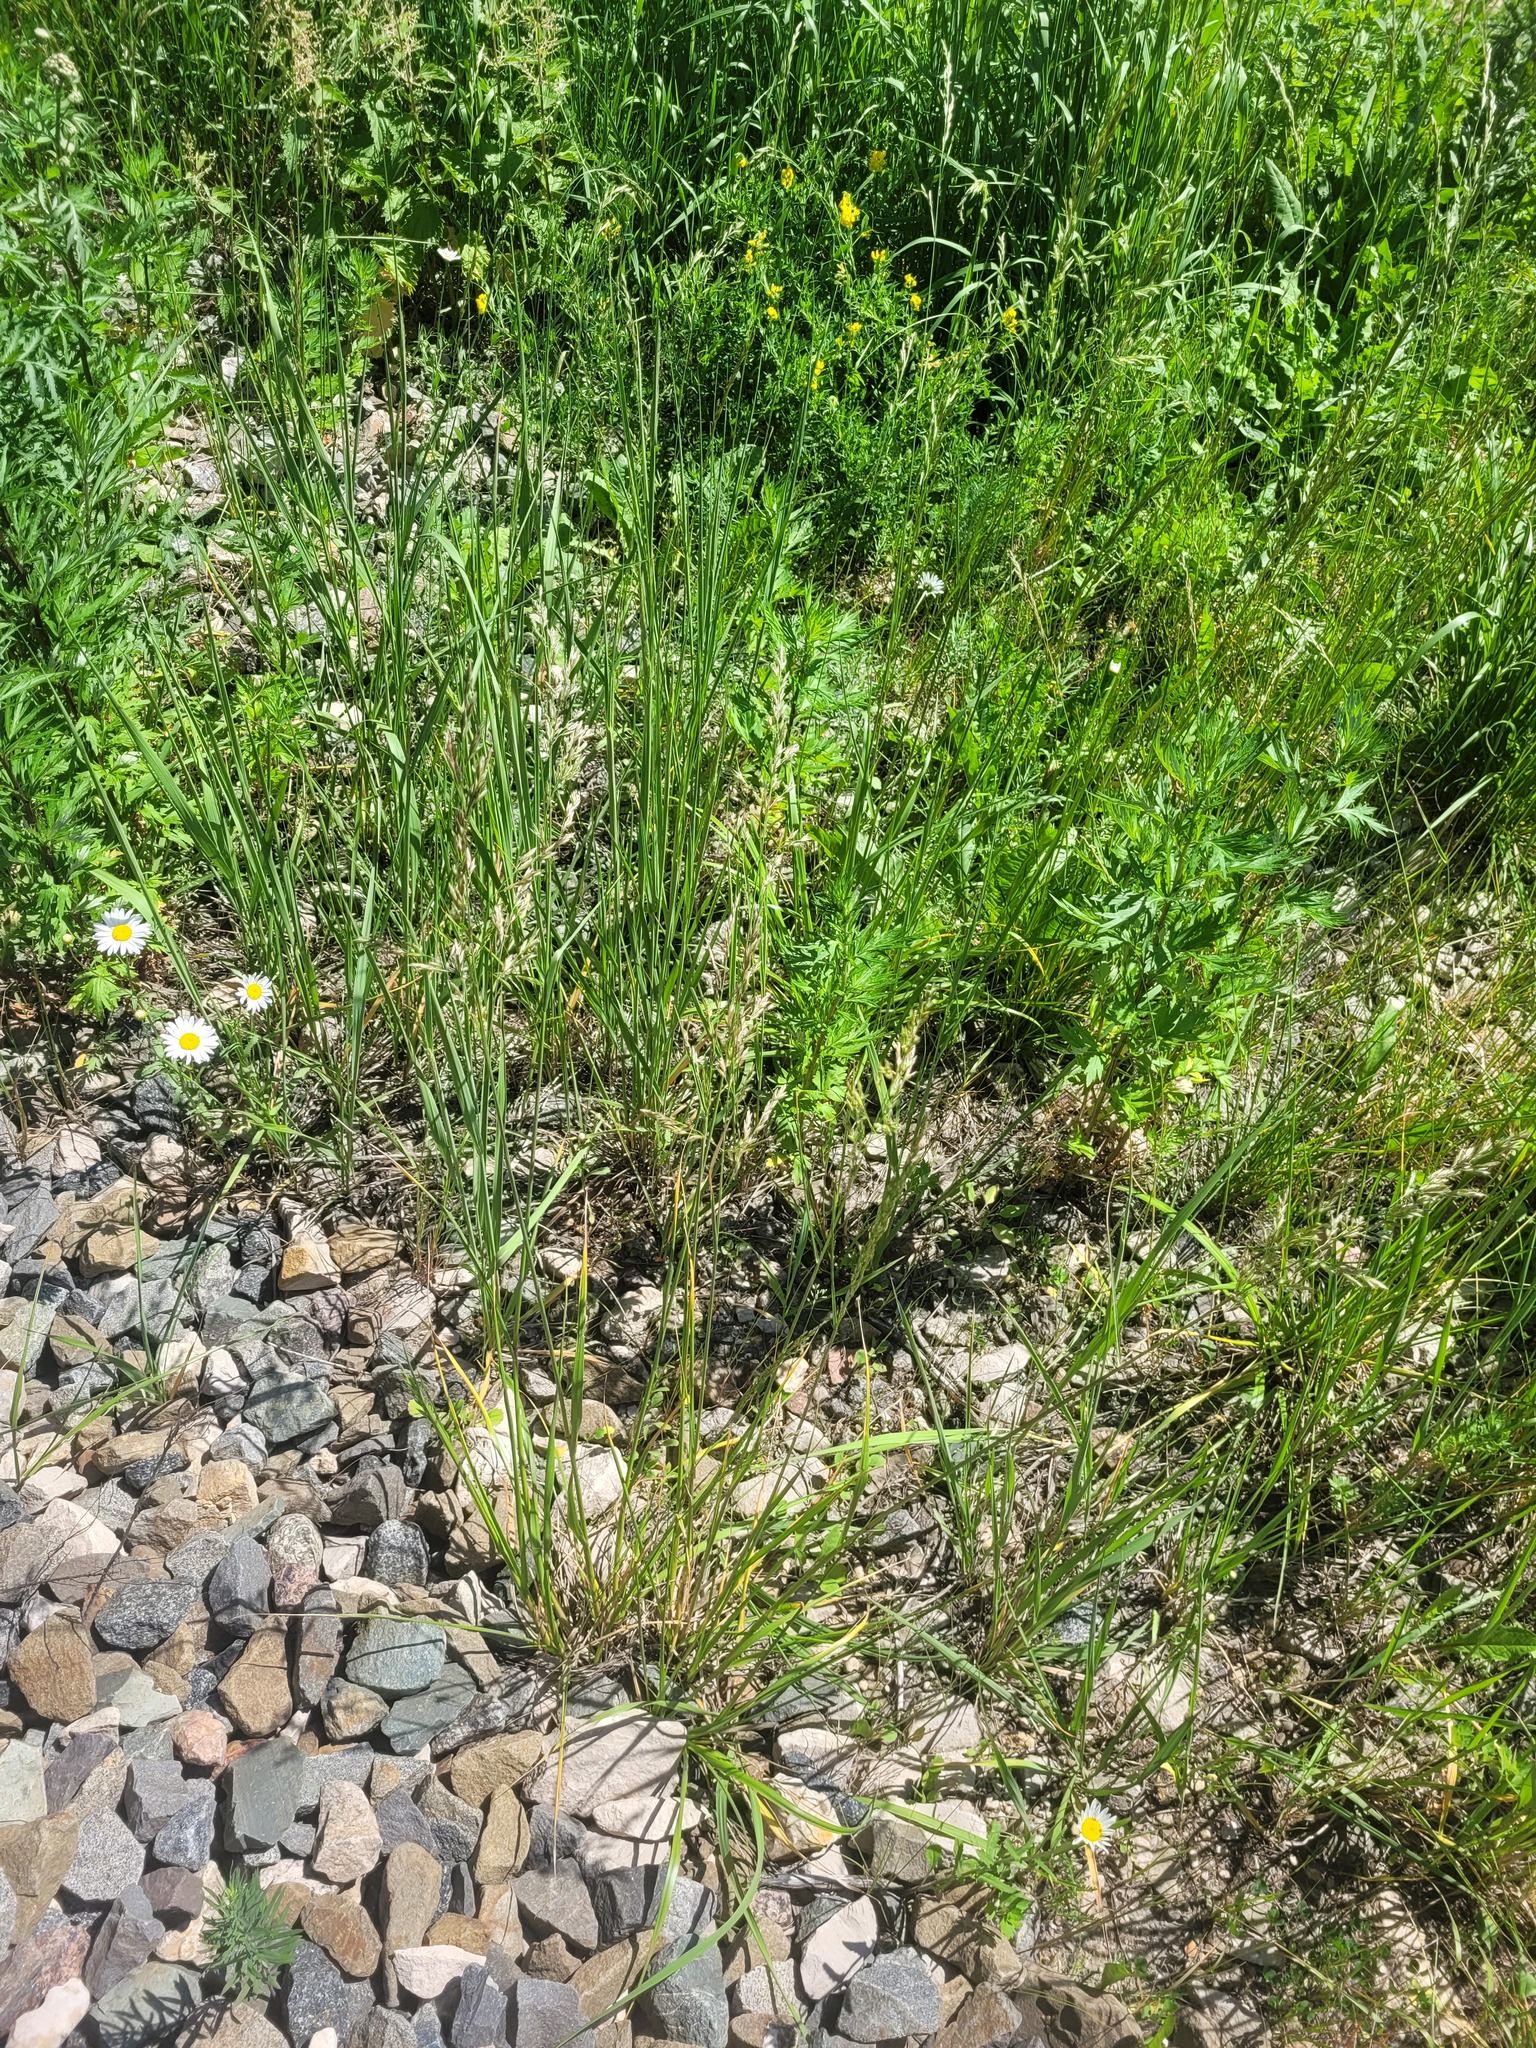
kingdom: Plantae
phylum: Tracheophyta
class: Liliopsida
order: Poales
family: Poaceae
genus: Lolium
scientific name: Lolium arundinaceum
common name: Reed fescue
